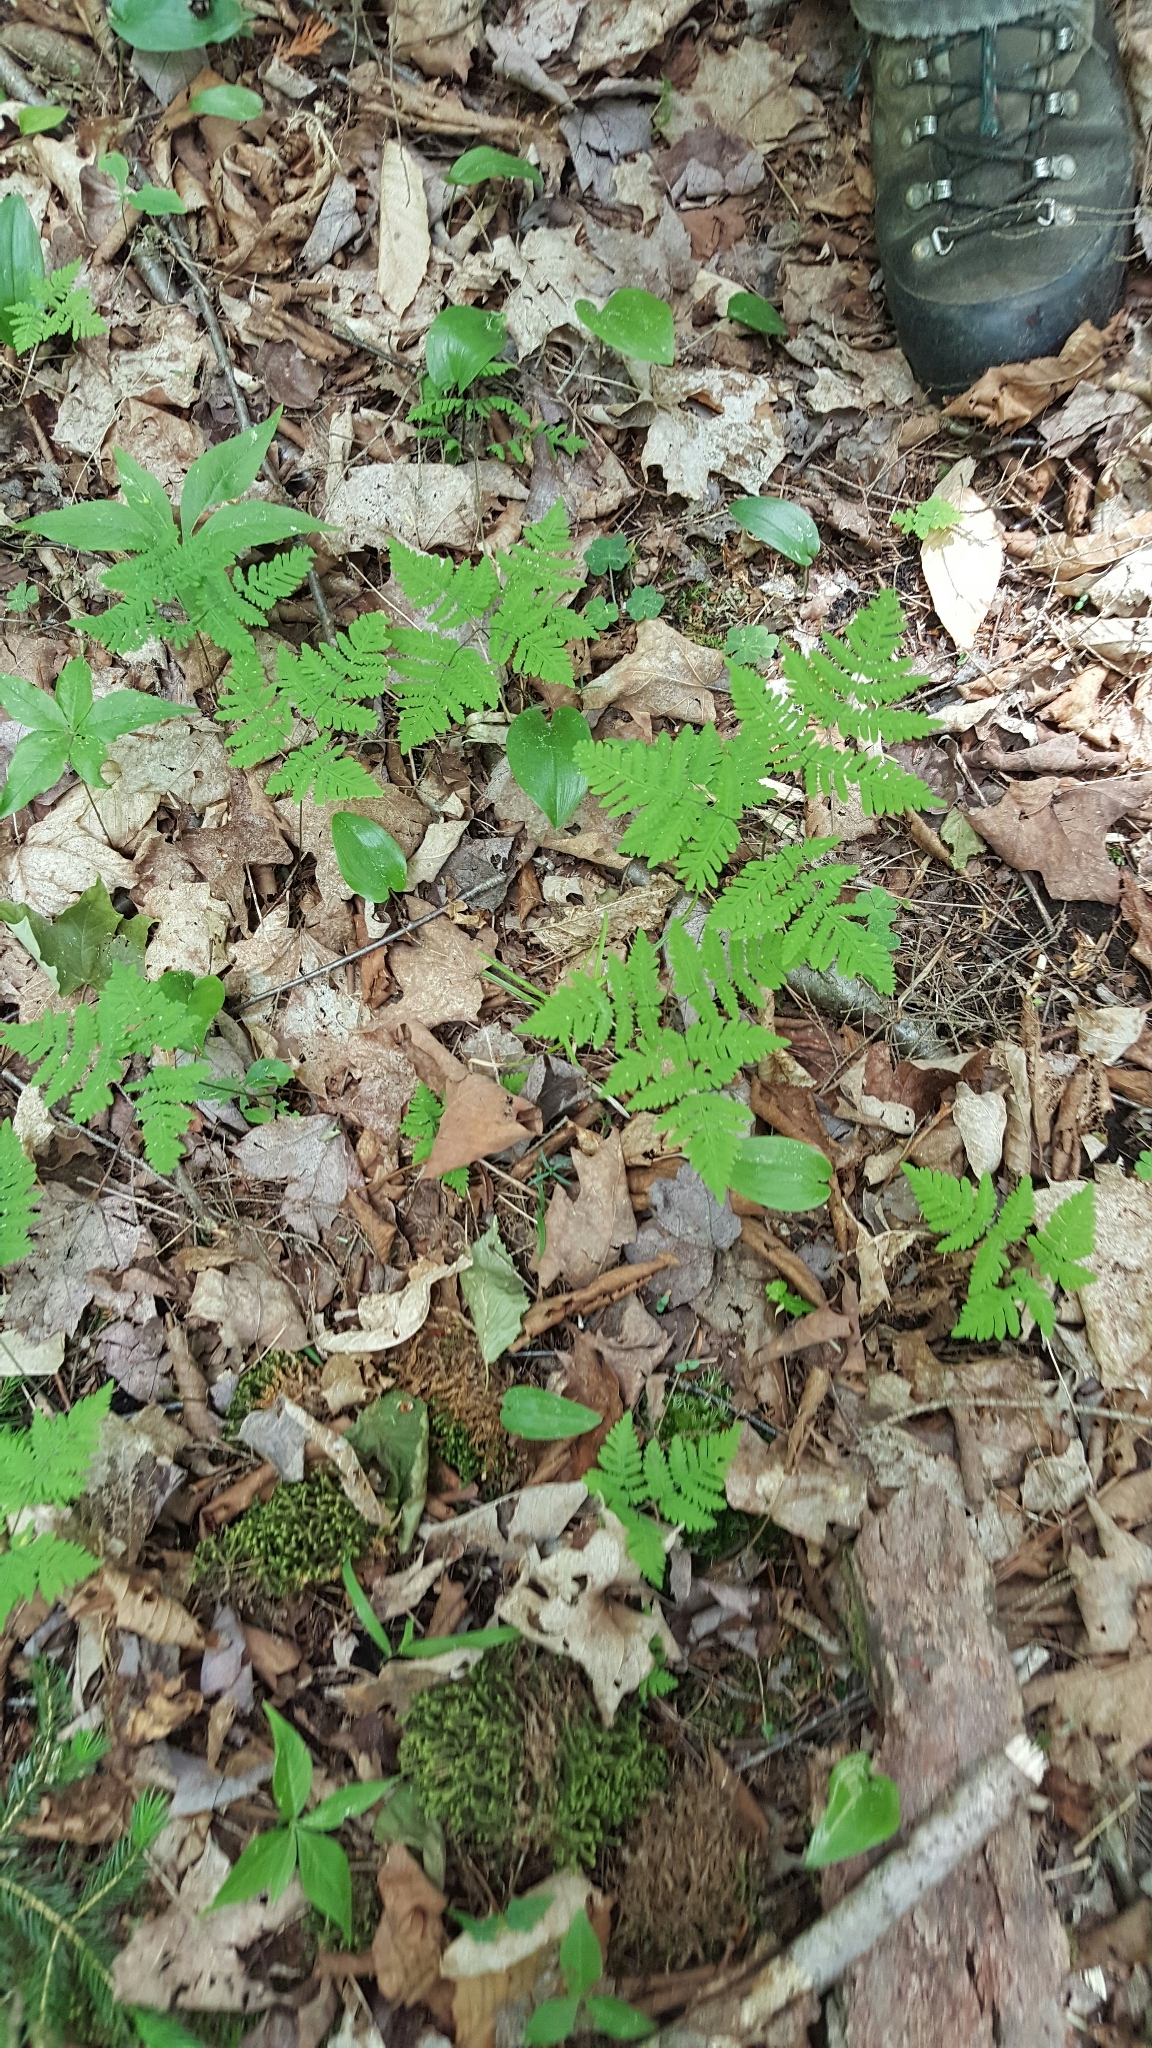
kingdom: Plantae
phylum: Tracheophyta
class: Polypodiopsida
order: Polypodiales
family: Cystopteridaceae
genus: Gymnocarpium
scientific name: Gymnocarpium dryopteris
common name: Oak fern
